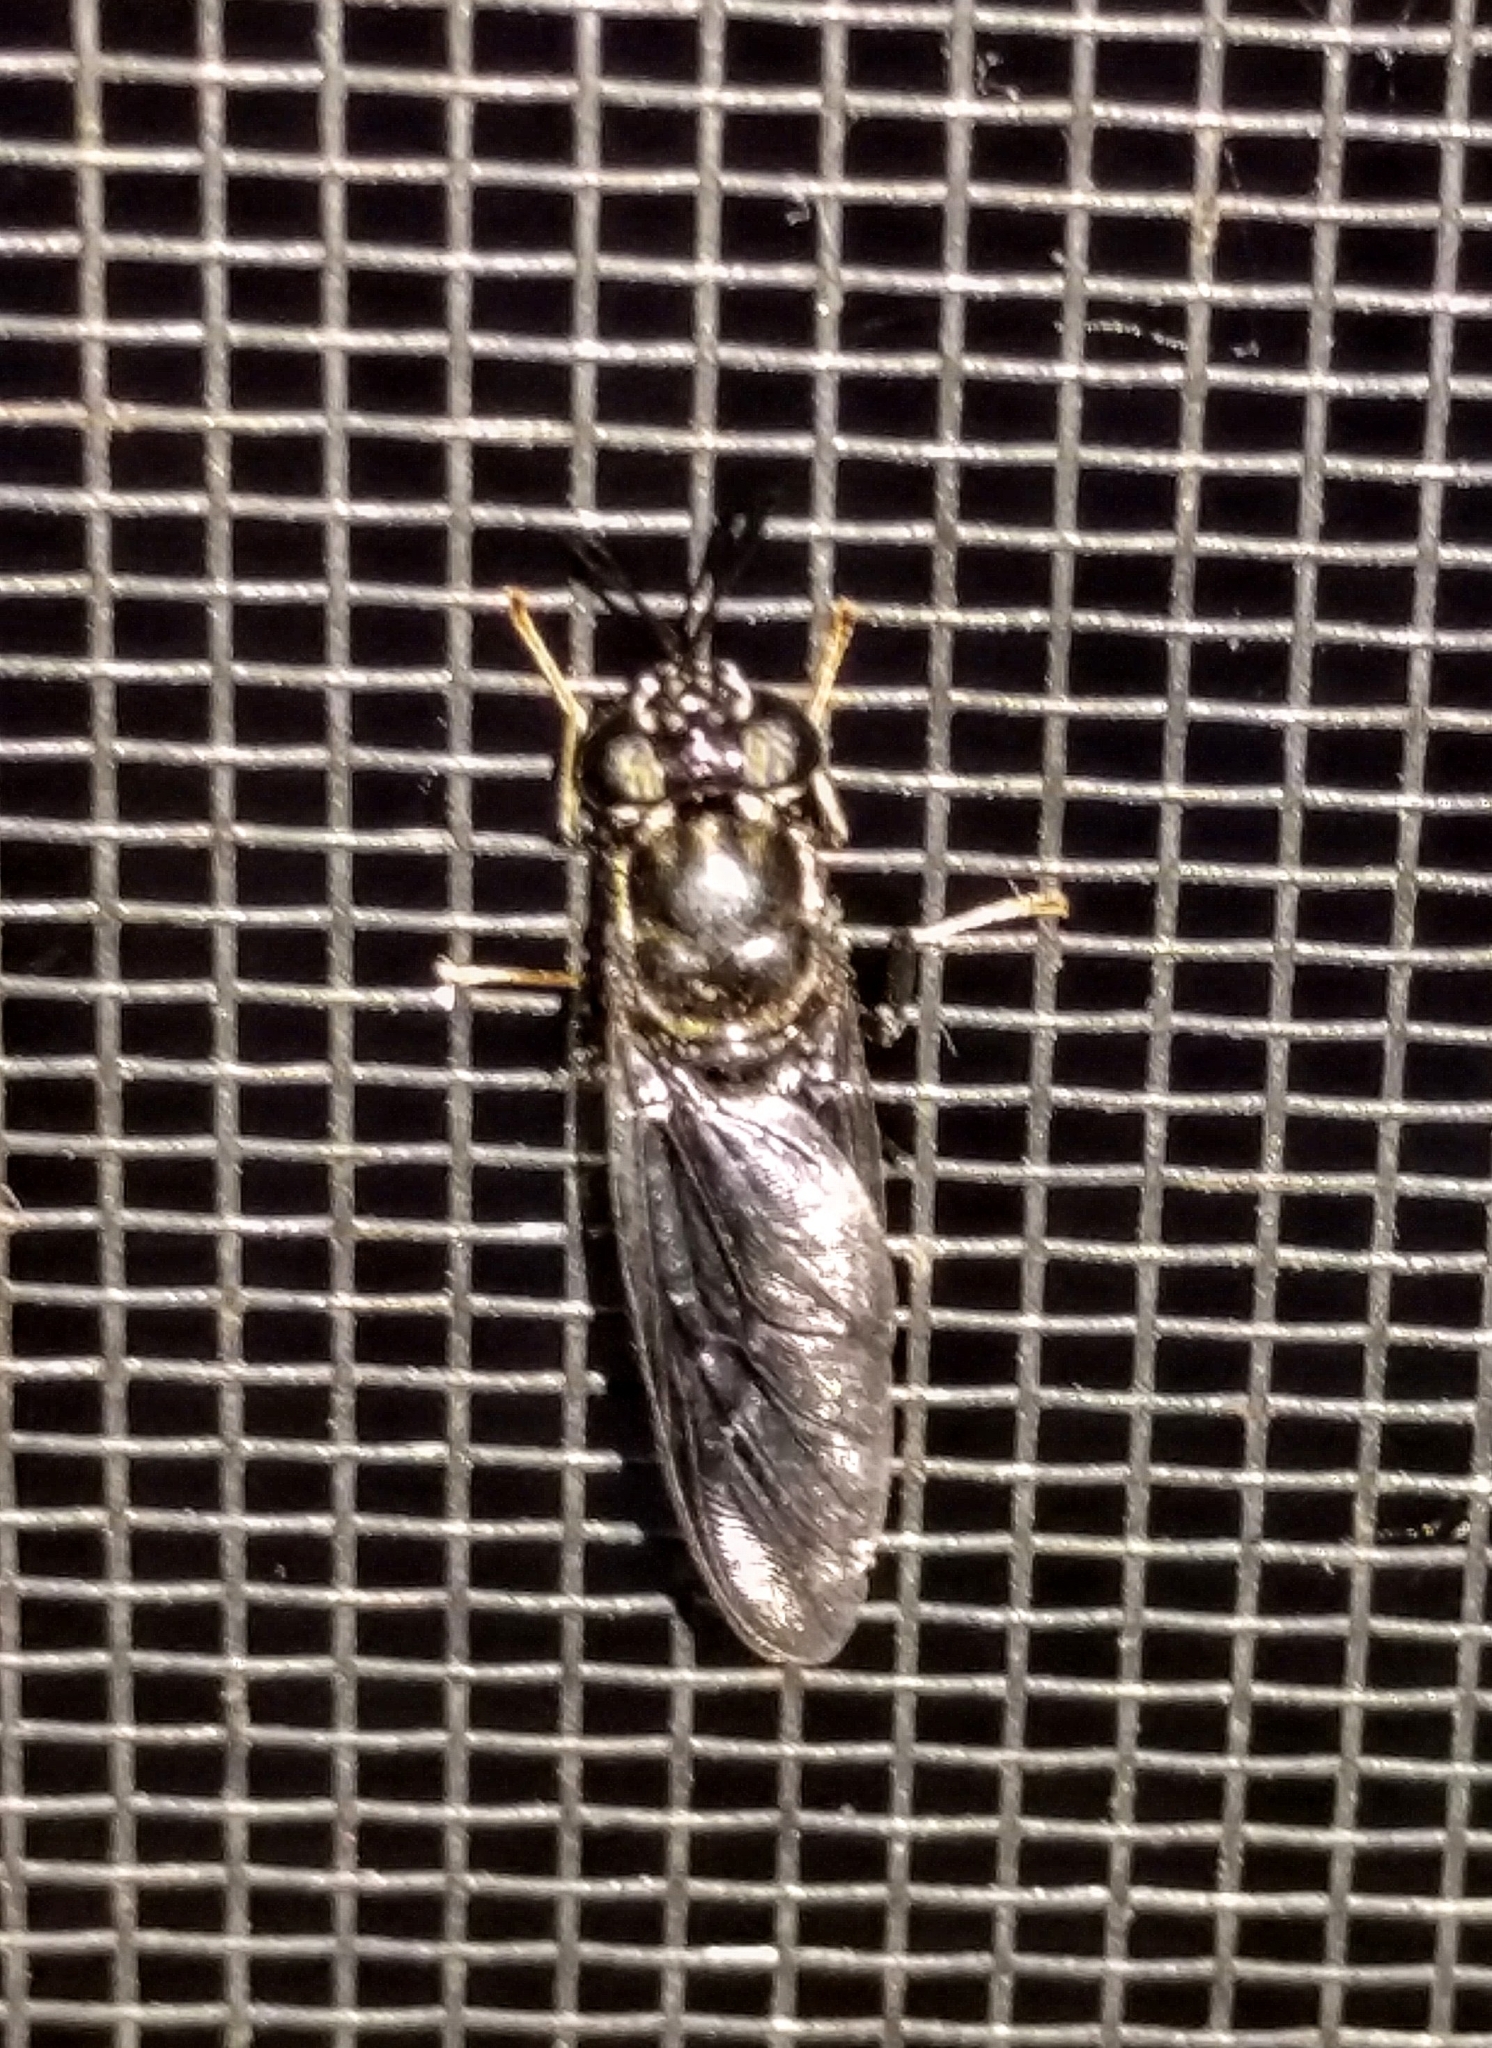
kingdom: Animalia
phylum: Arthropoda
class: Insecta
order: Diptera
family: Stratiomyidae
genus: Hermetia
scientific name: Hermetia illucens
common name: Black soldier fly
